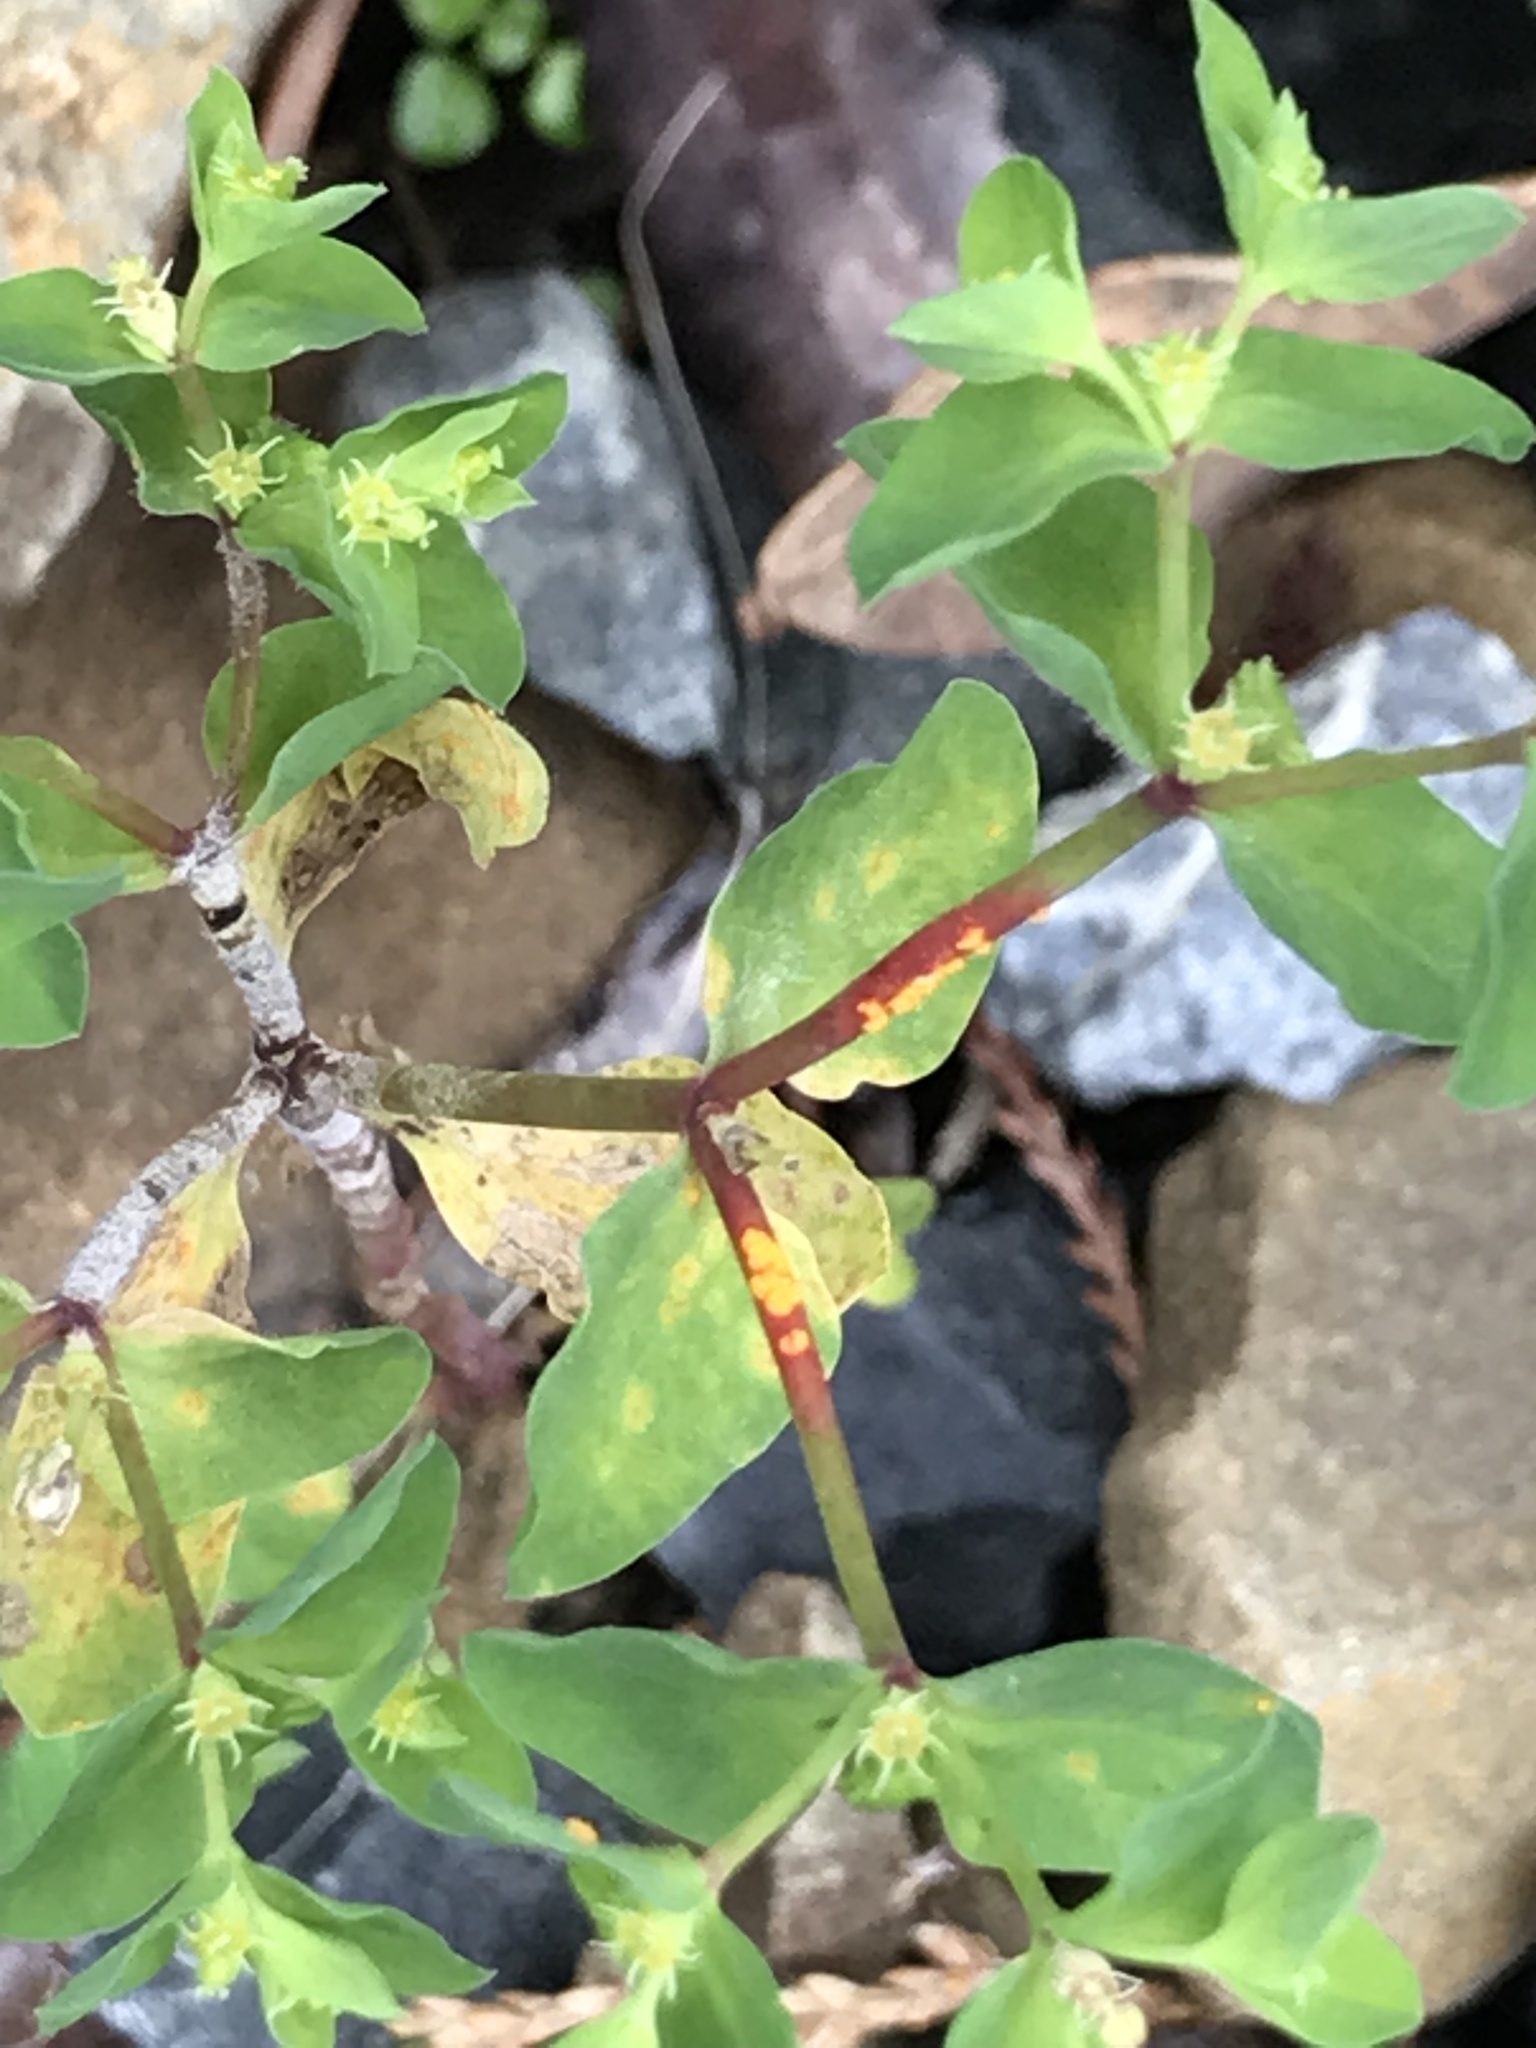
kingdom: Fungi
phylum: Basidiomycota
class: Pucciniomycetes
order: Pucciniales
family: Melampsoraceae
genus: Melampsora
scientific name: Melampsora euphorbiae
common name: Spurge rust
